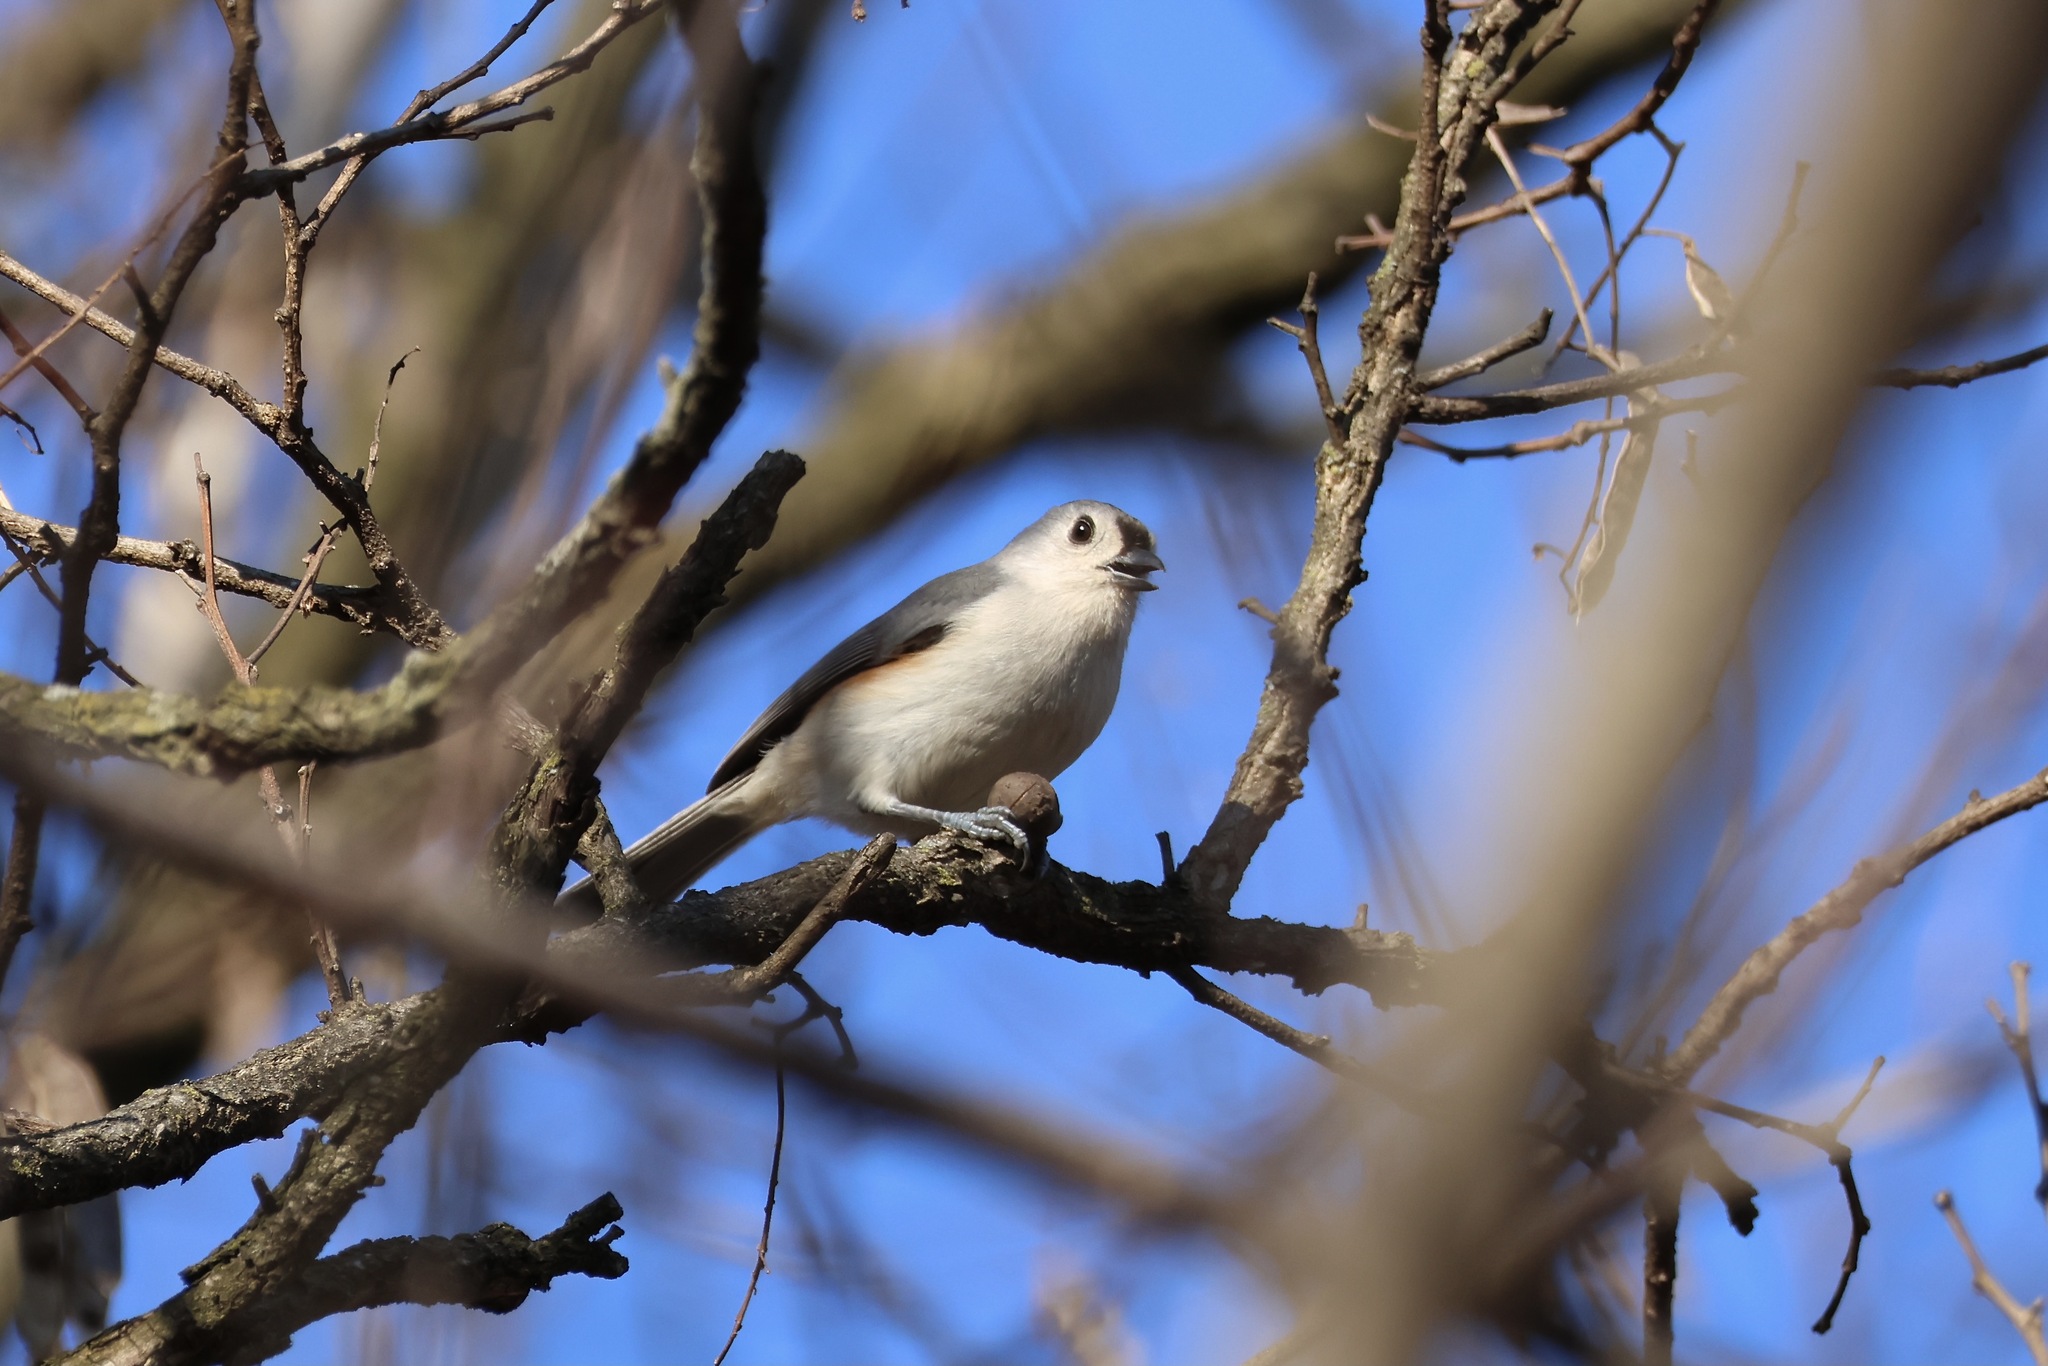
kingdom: Animalia
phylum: Chordata
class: Aves
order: Passeriformes
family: Paridae
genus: Baeolophus
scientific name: Baeolophus bicolor
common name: Tufted titmouse
